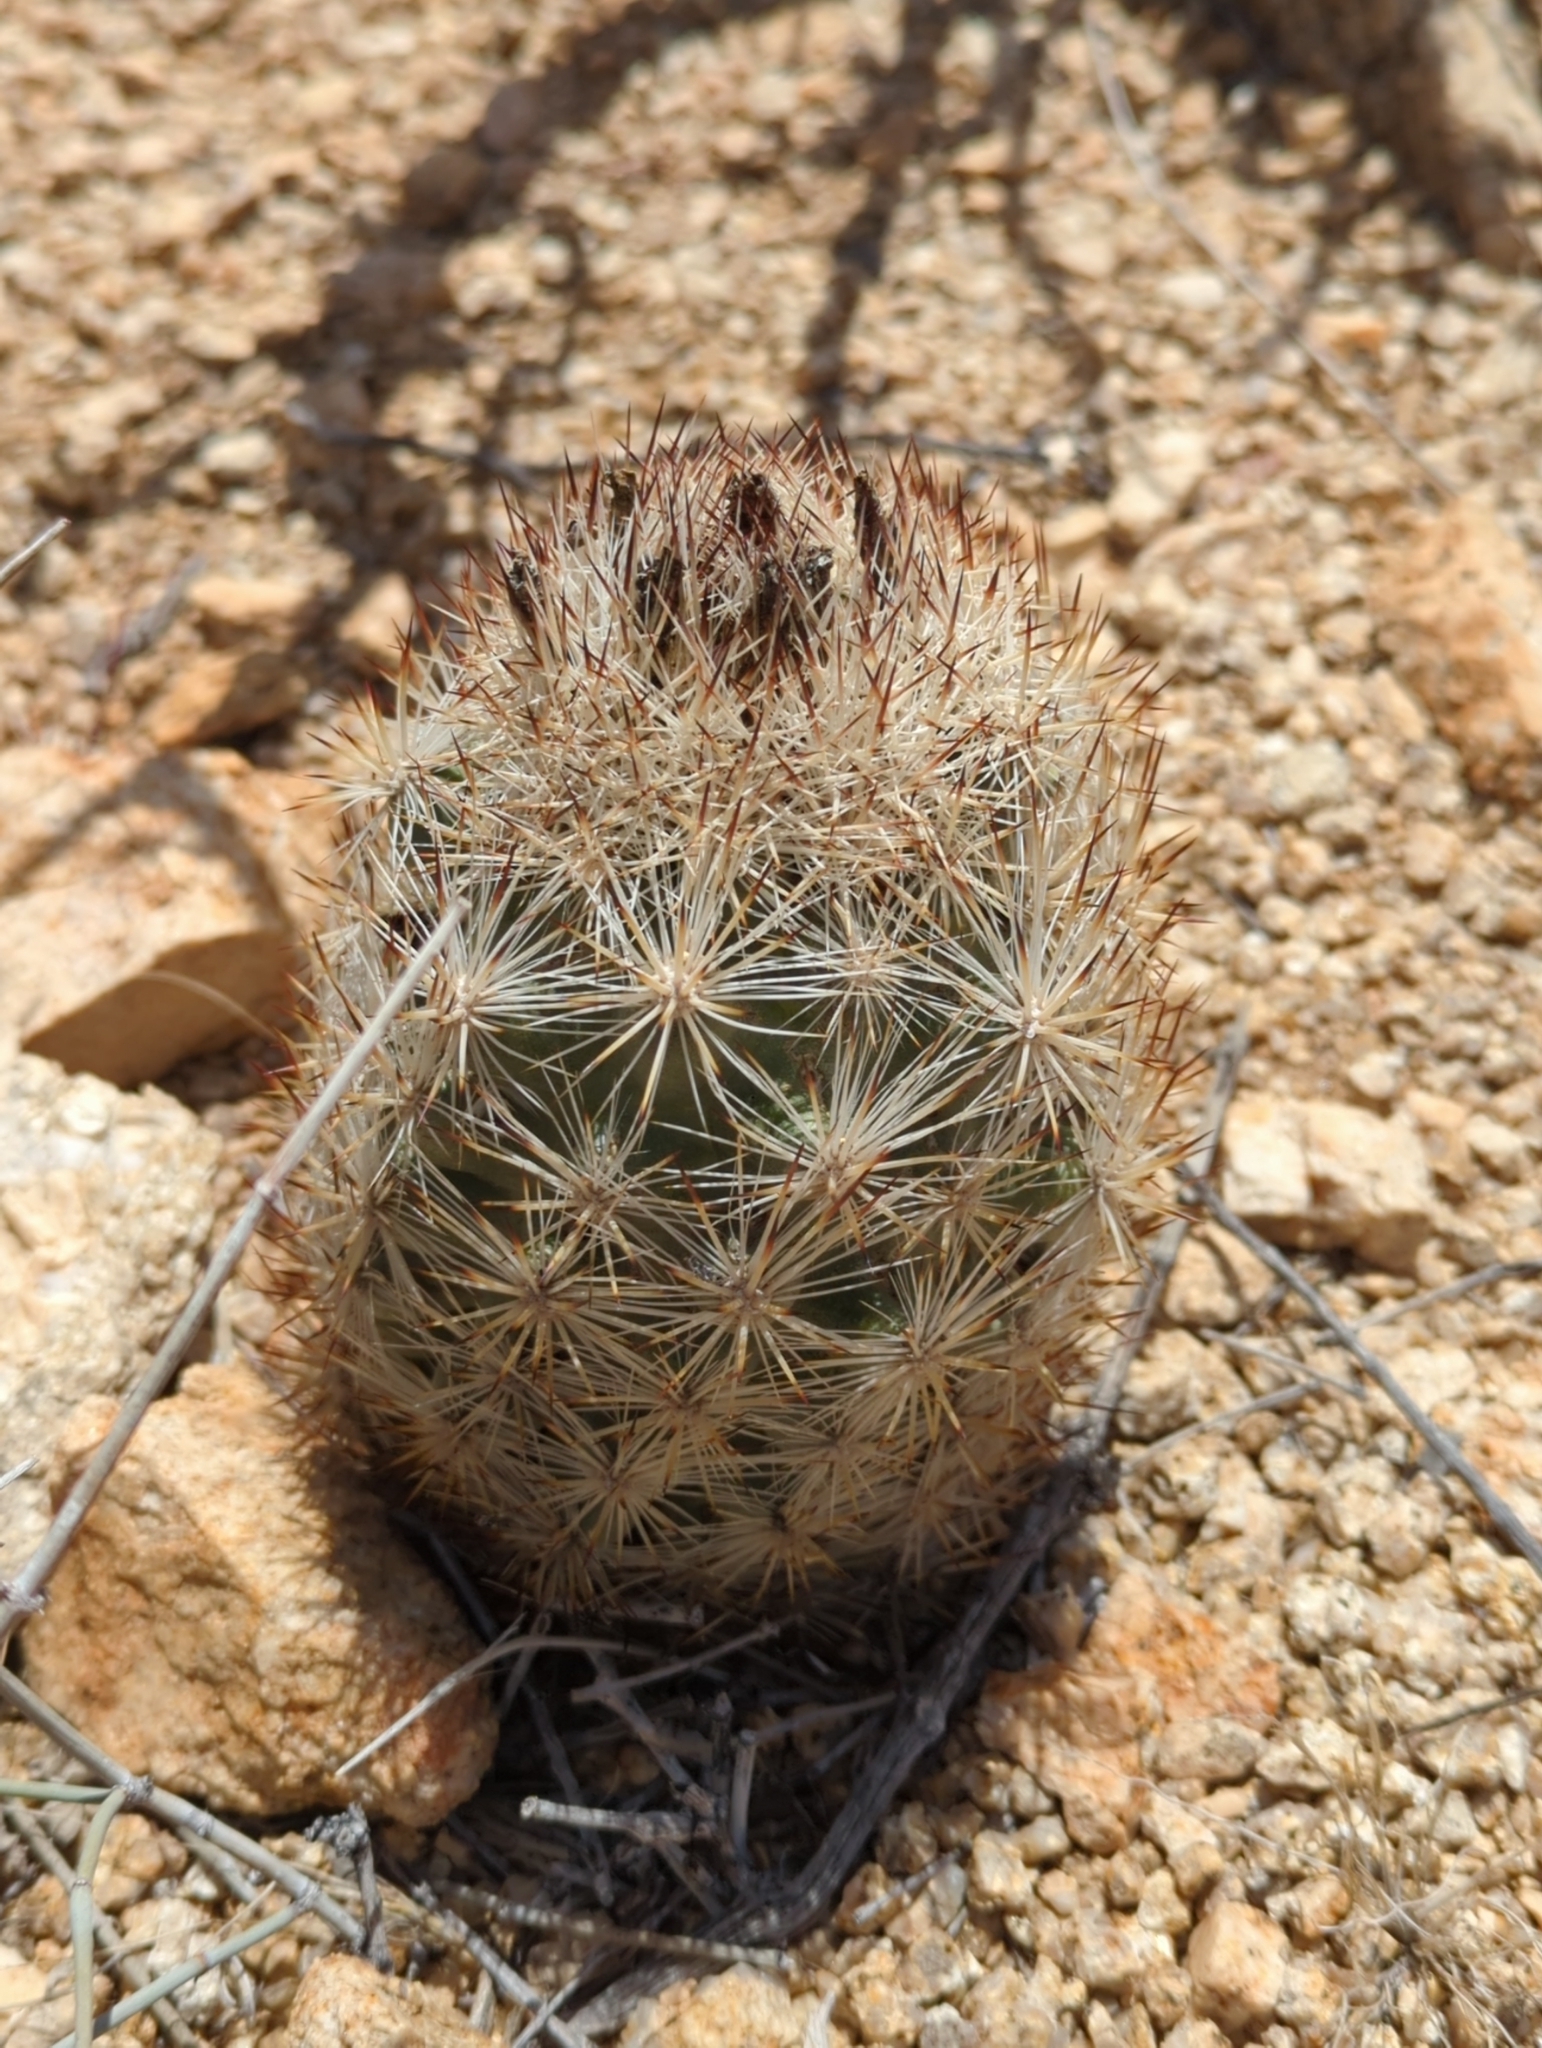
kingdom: Plantae
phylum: Tracheophyta
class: Magnoliopsida
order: Caryophyllales
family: Cactaceae
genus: Pelecyphora
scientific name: Pelecyphora alversonii
